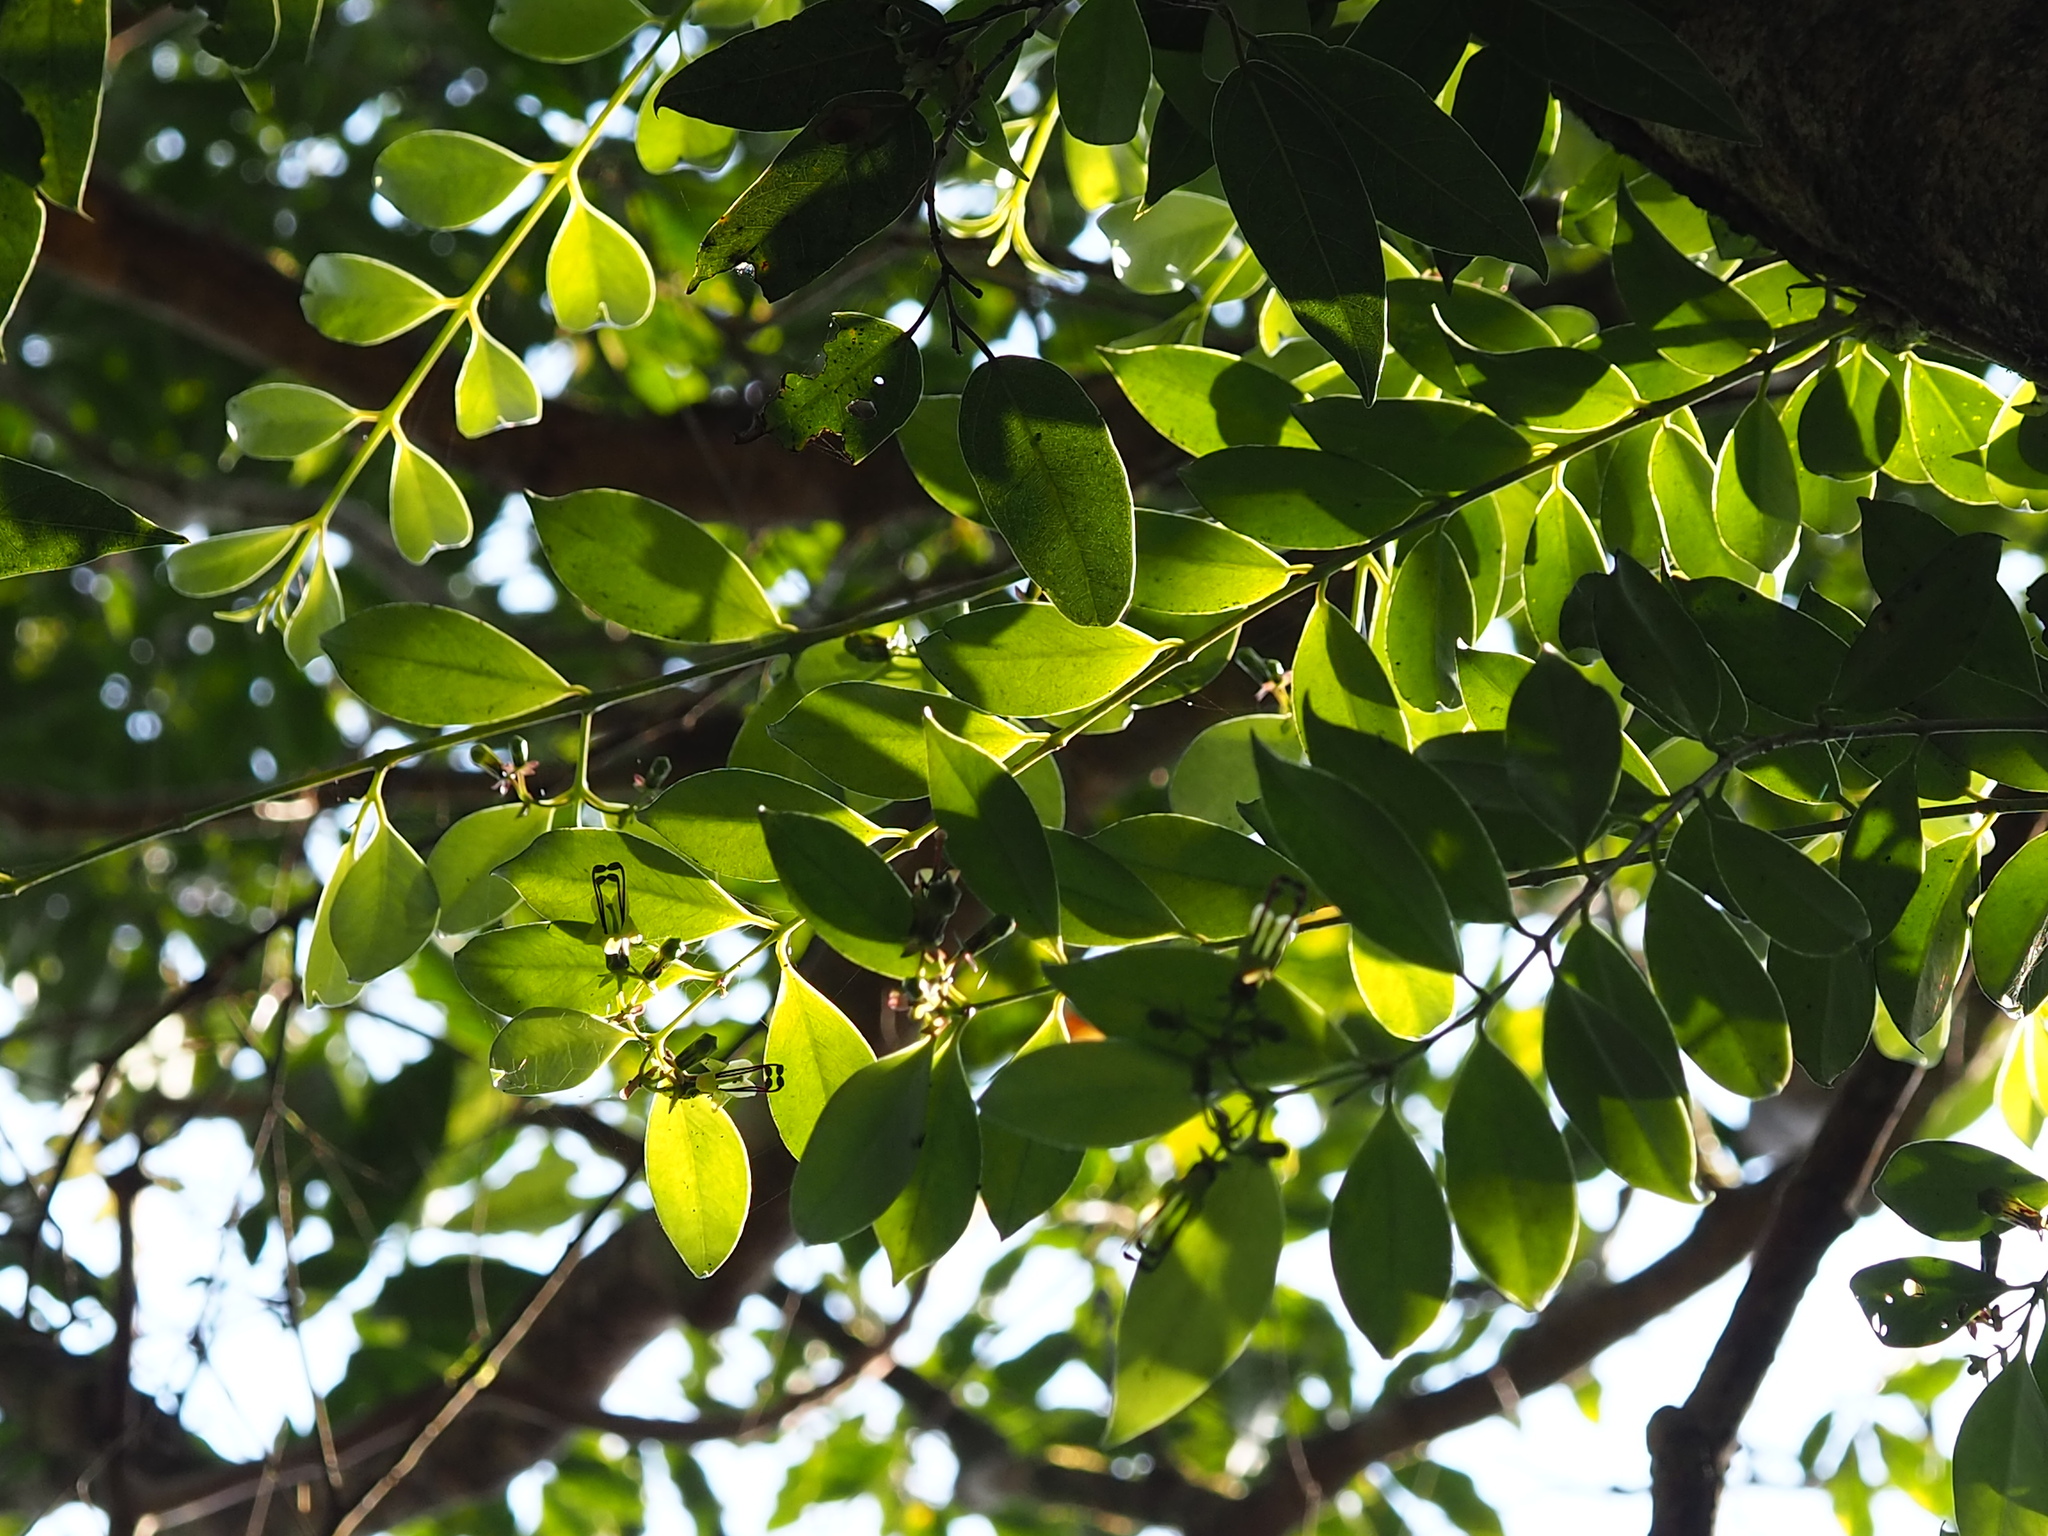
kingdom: Plantae
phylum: Tracheophyta
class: Magnoliopsida
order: Lamiales
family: Gesneriaceae
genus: Aeschynanthus
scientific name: Aeschynanthus acuminatus
